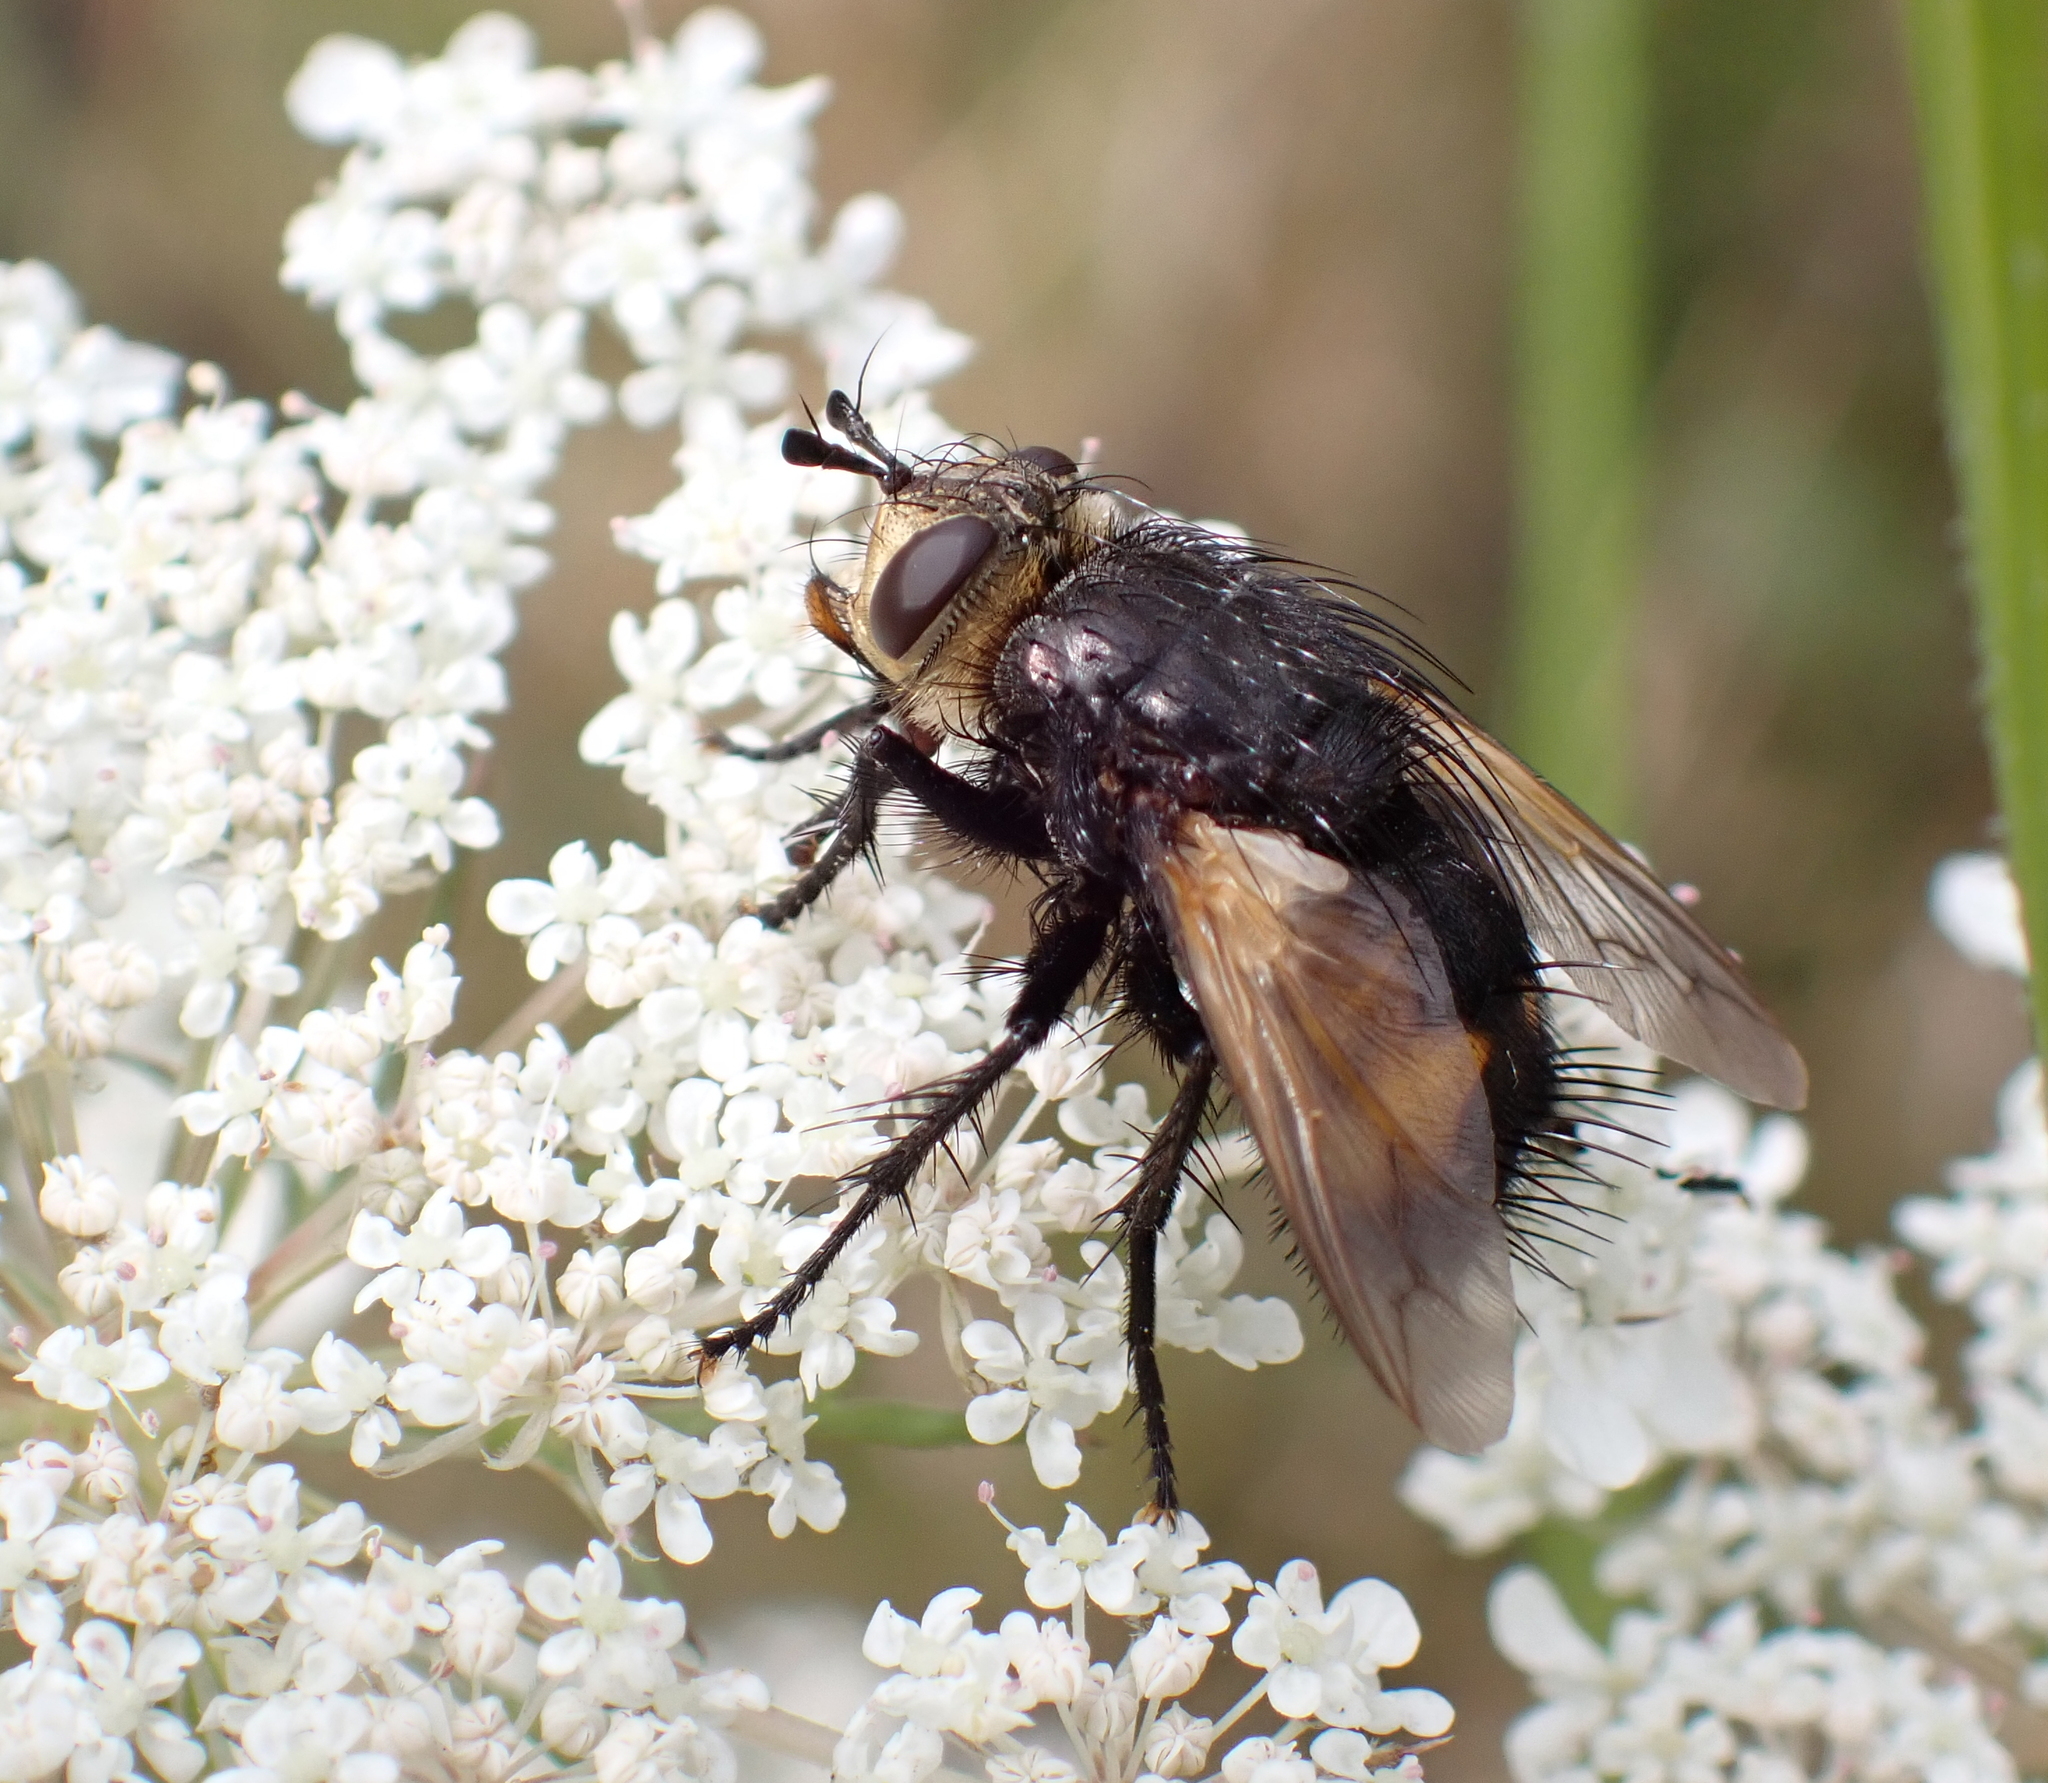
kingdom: Animalia
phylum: Arthropoda
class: Insecta
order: Diptera
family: Tachinidae
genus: Nowickia
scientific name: Nowickia ferox
